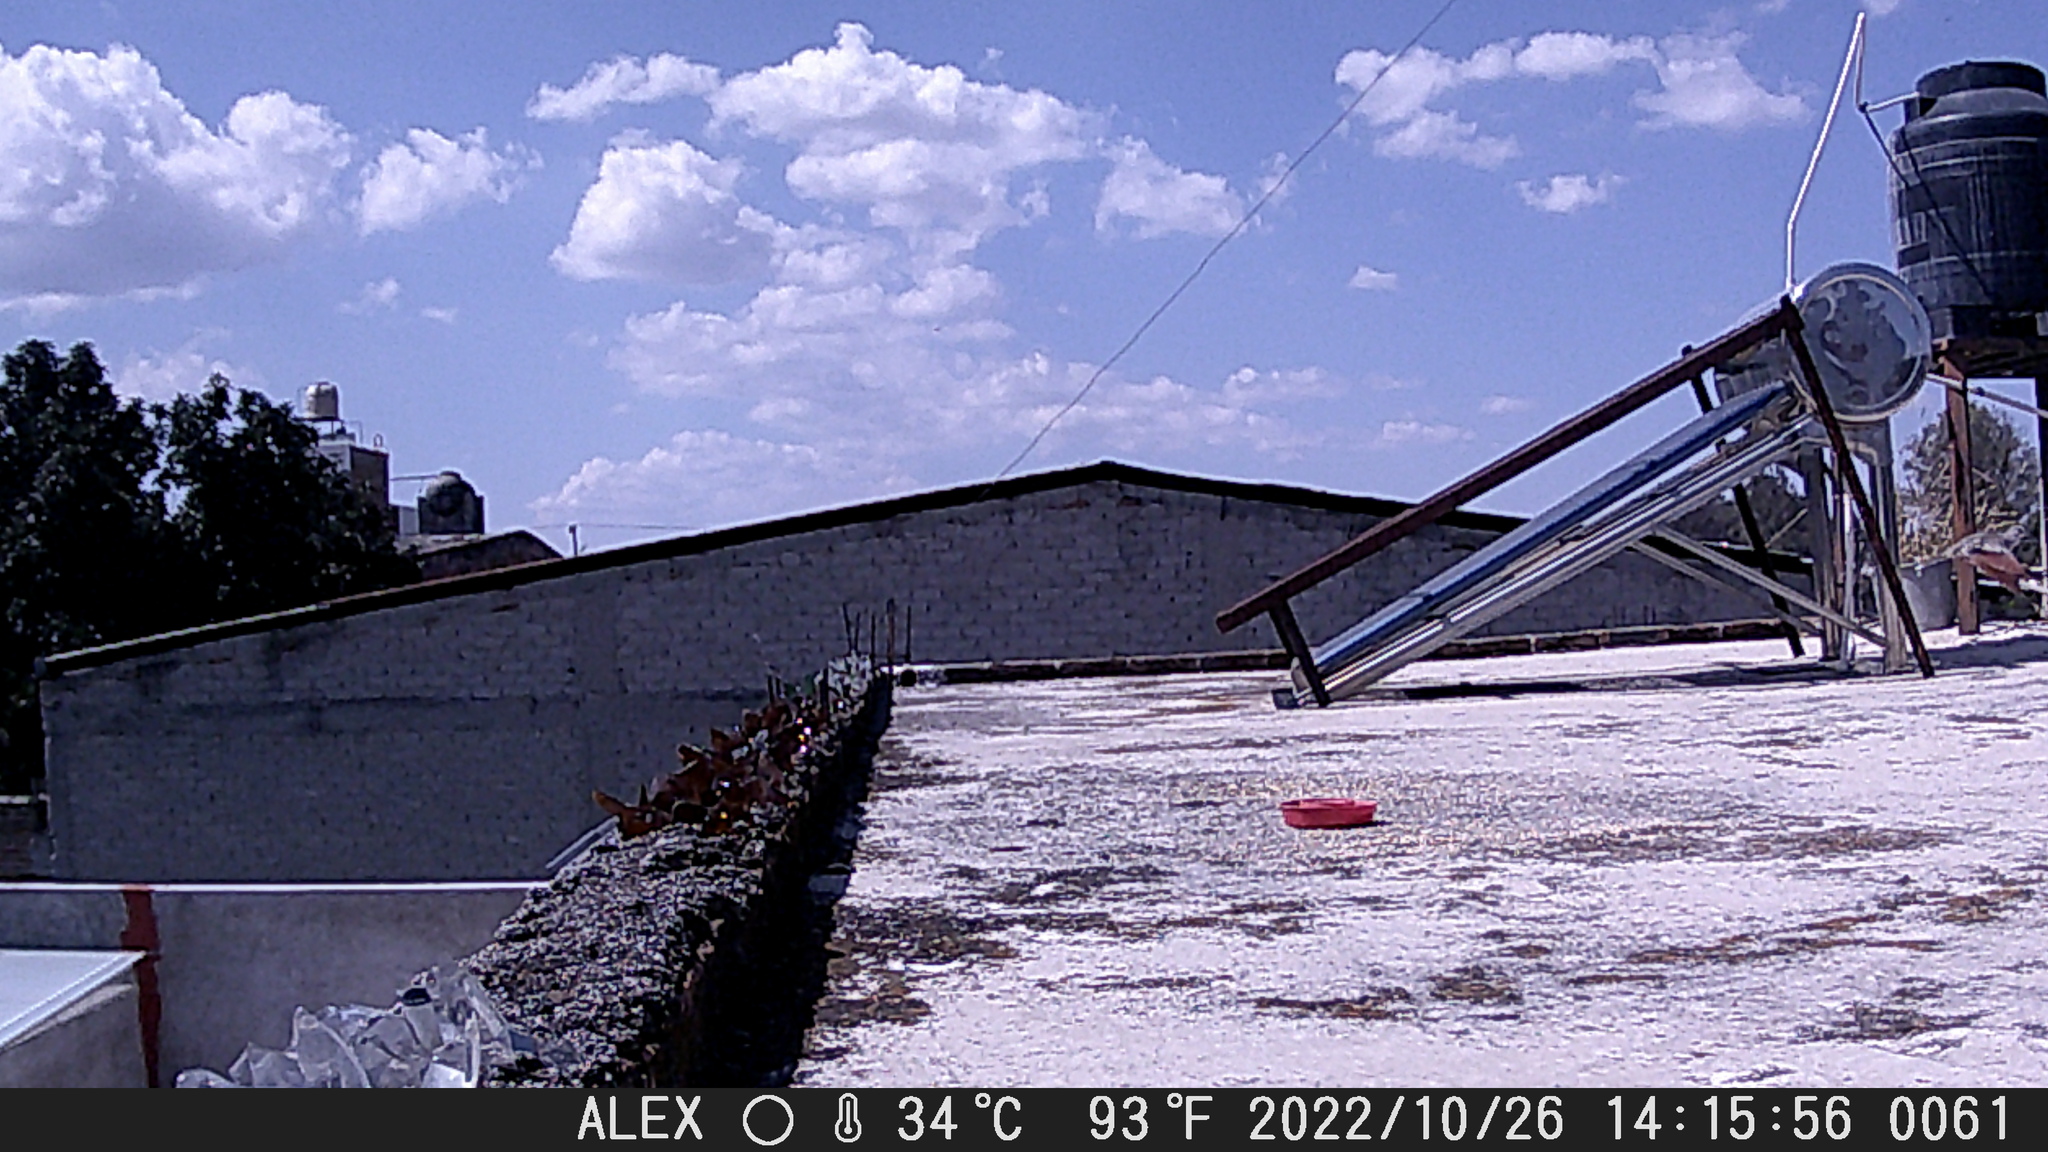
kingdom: Animalia
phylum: Chordata
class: Aves
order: Columbiformes
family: Columbidae
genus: Columbina
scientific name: Columbina inca
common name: Inca dove
